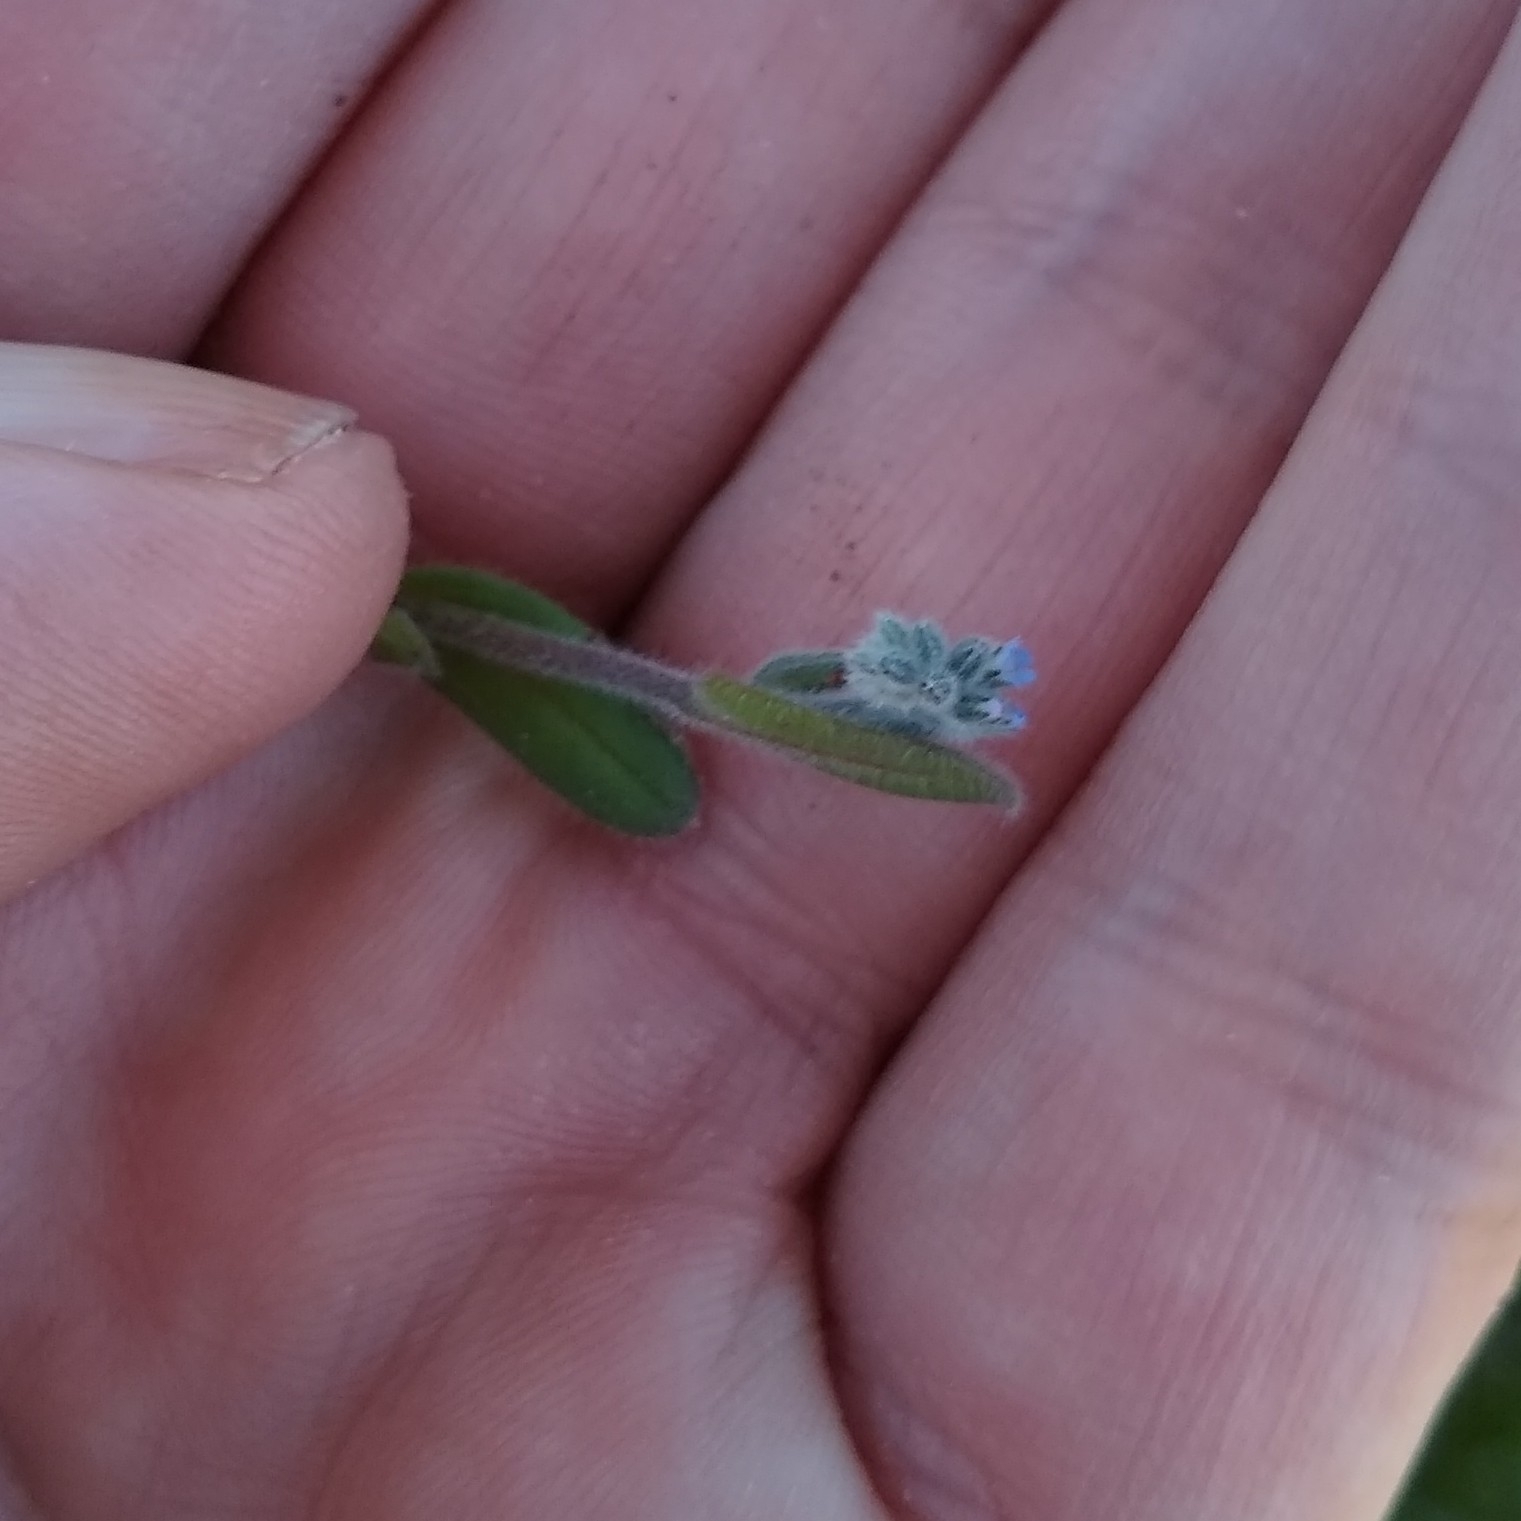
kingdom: Plantae
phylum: Tracheophyta
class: Magnoliopsida
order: Boraginales
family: Boraginaceae
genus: Myosotis
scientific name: Myosotis stricta
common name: Strict forget-me-not
